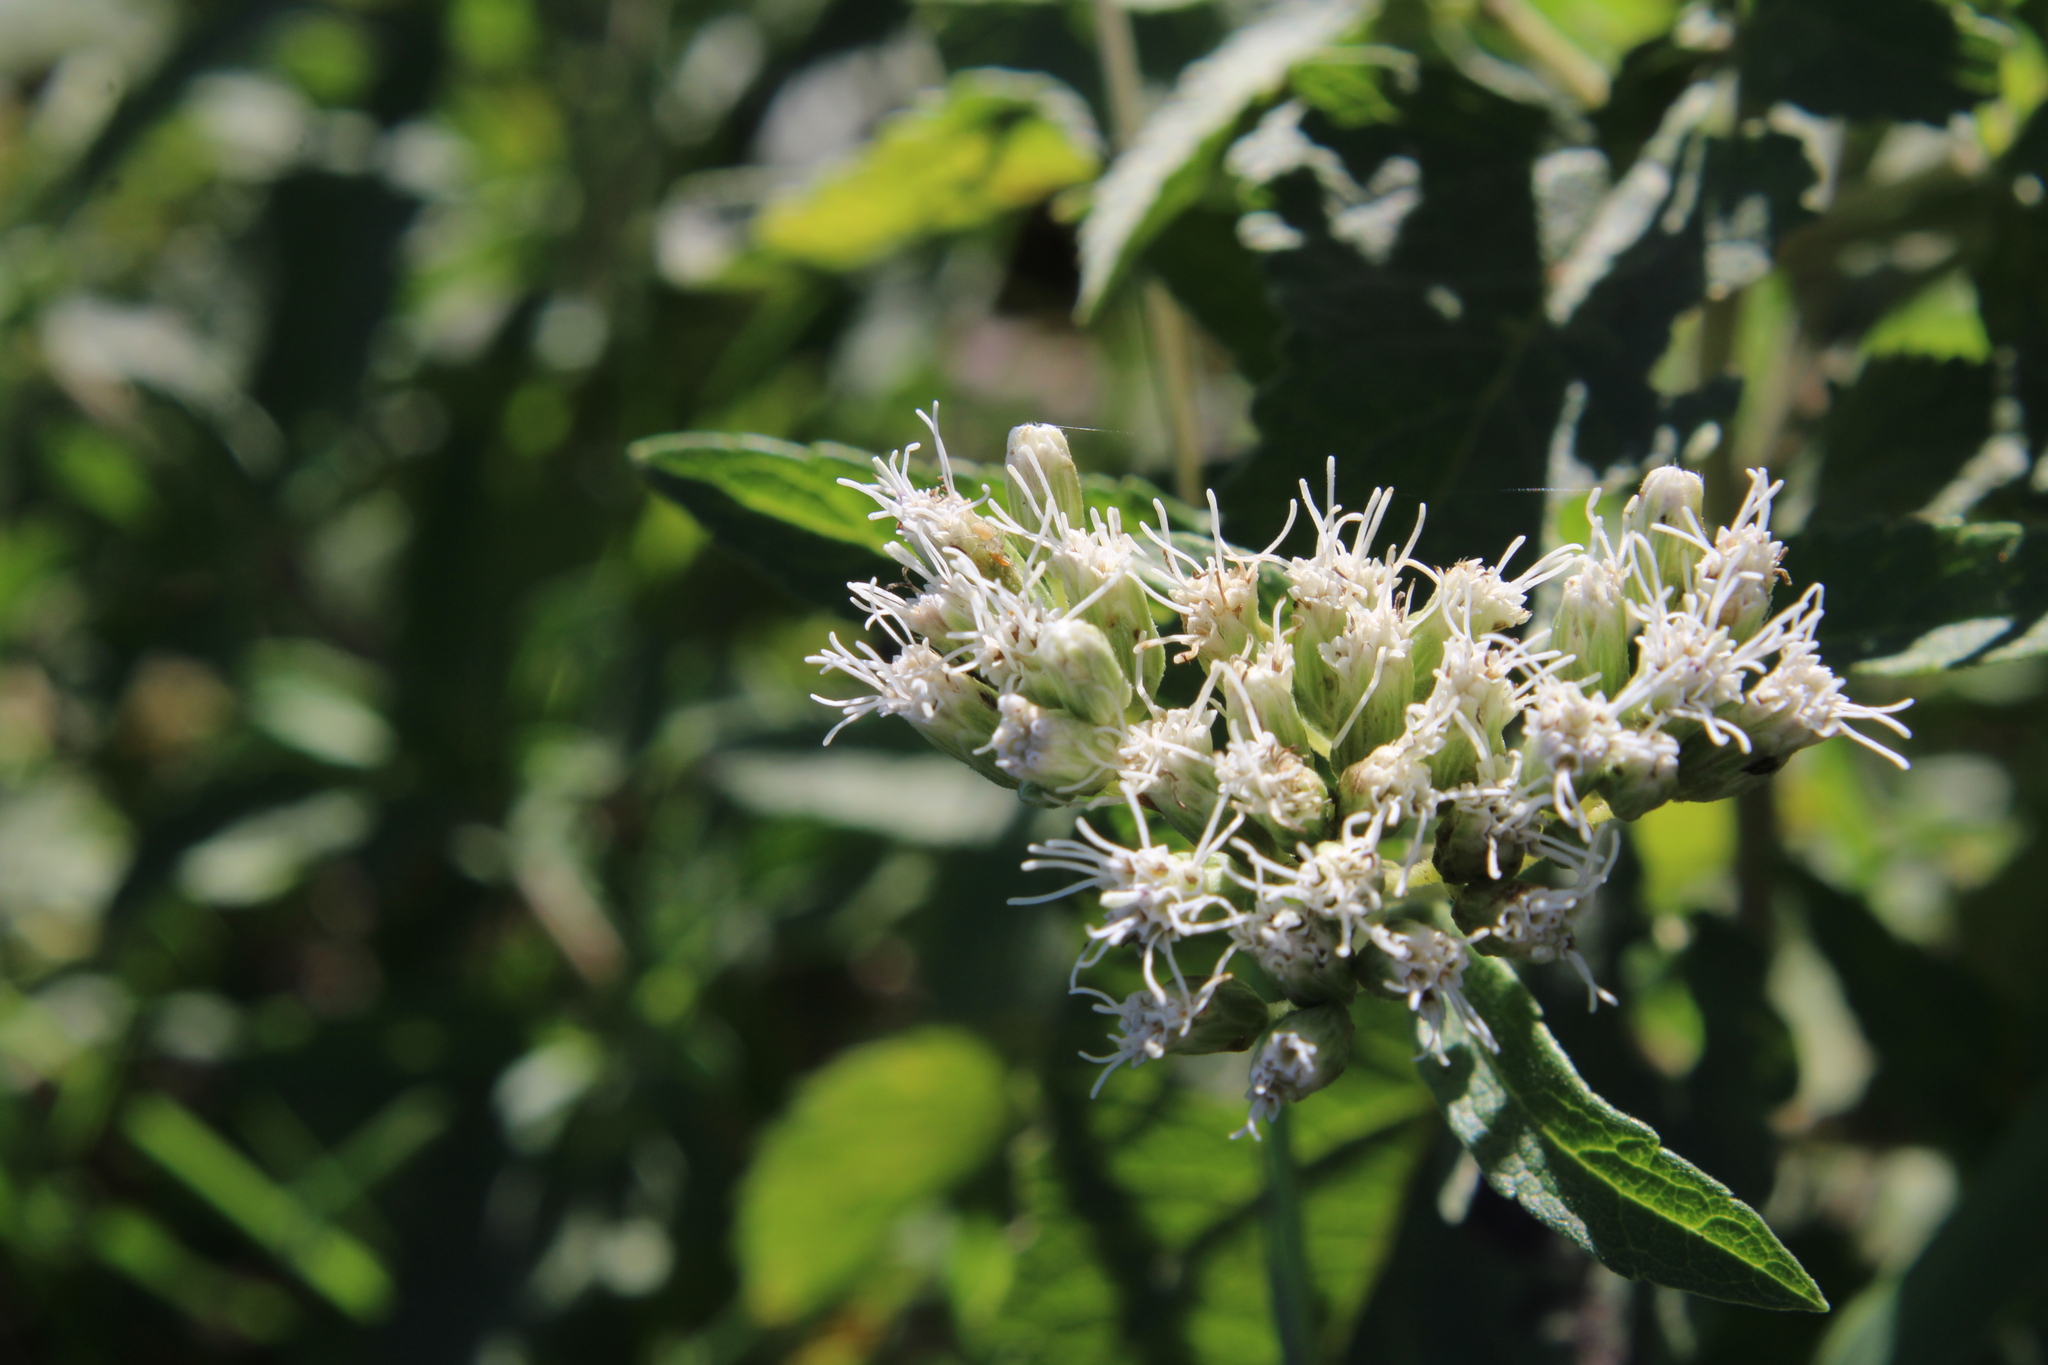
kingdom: Plantae
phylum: Tracheophyta
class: Magnoliopsida
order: Asterales
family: Asteraceae
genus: Austroeupatorium
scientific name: Austroeupatorium inulifolium
